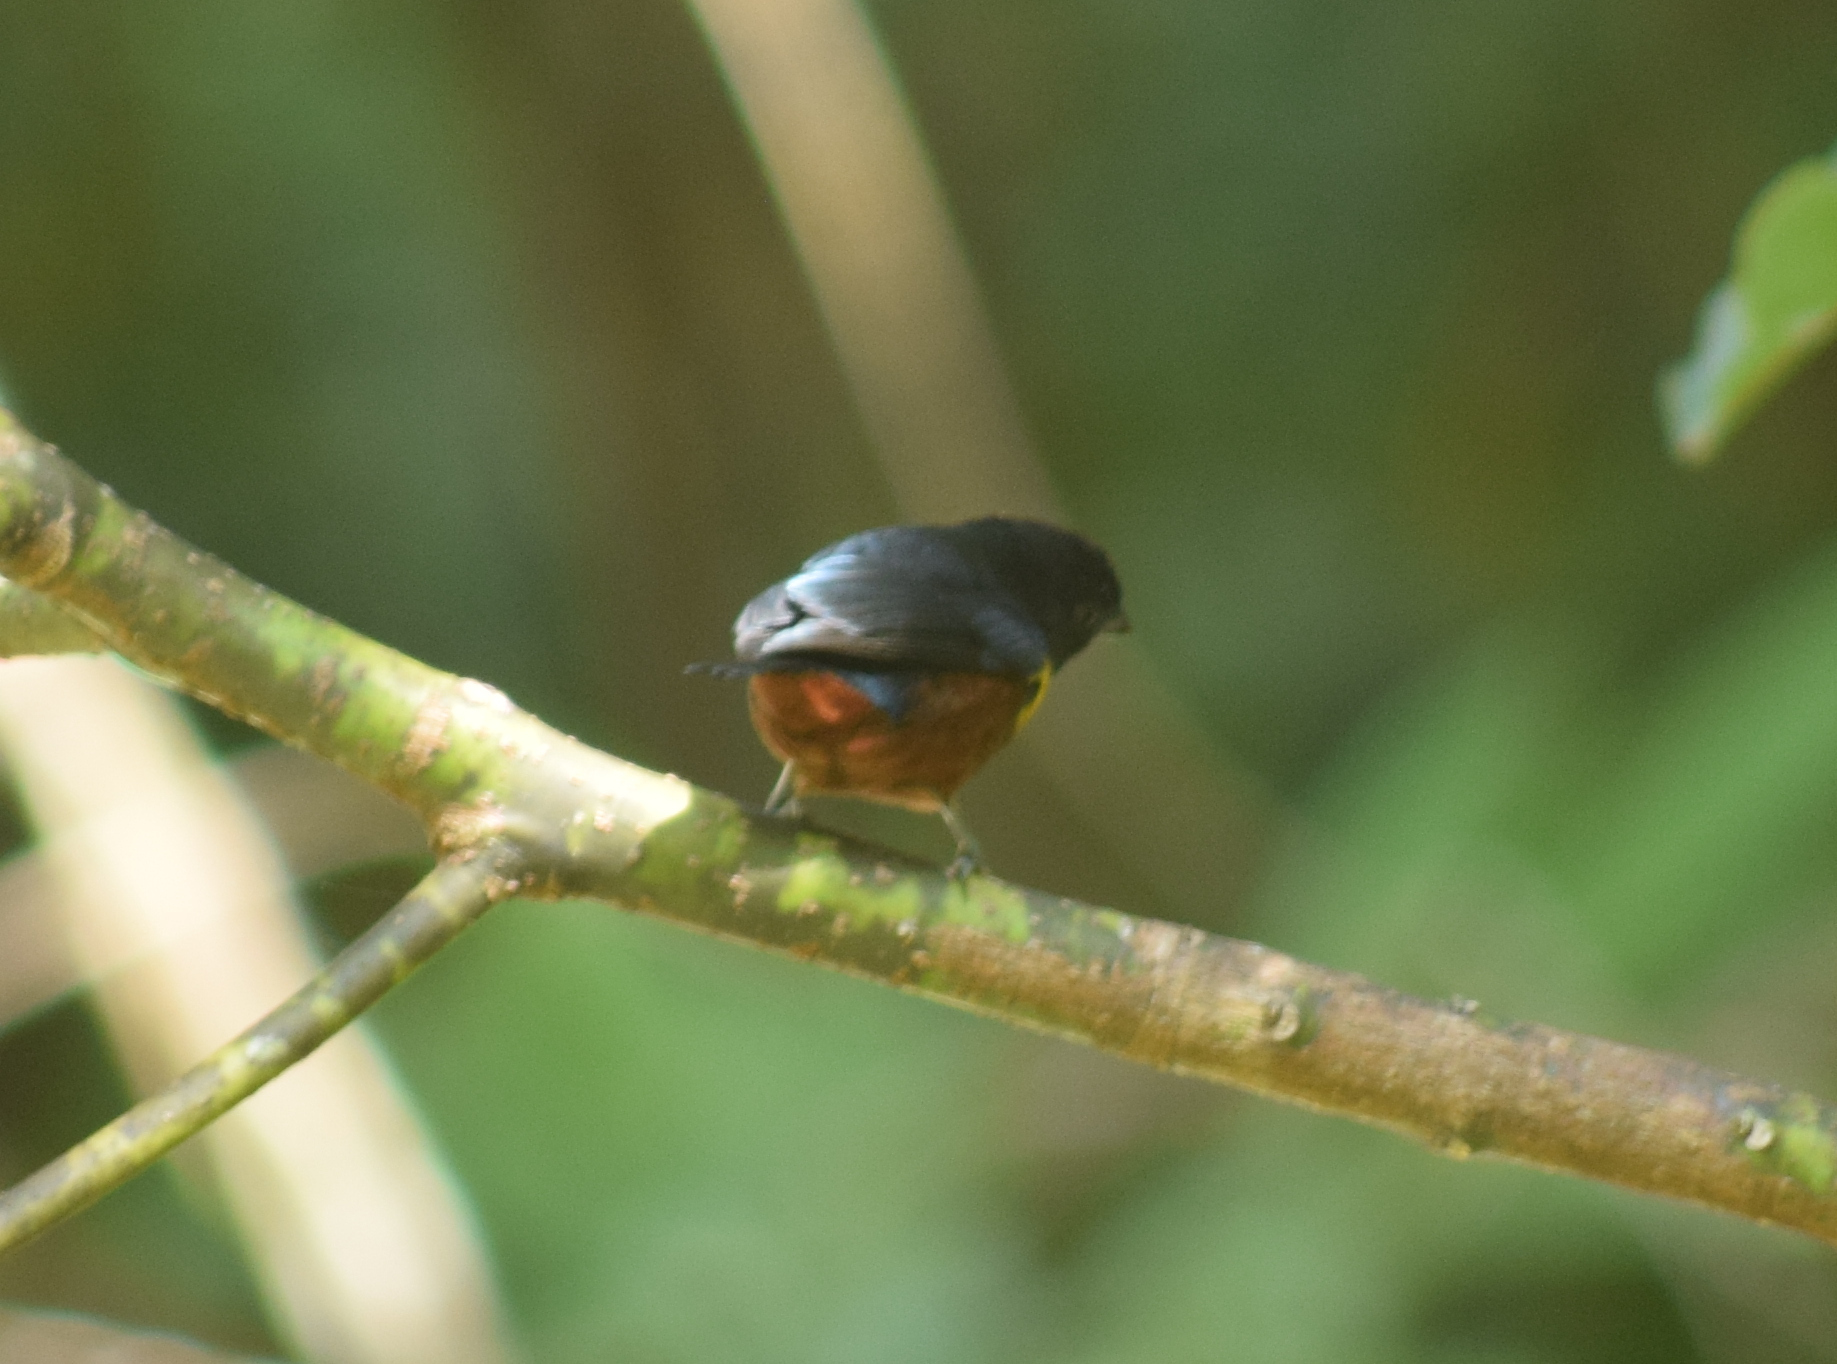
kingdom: Animalia
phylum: Chordata
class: Aves
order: Passeriformes
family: Fringillidae
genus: Euphonia
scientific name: Euphonia pectoralis
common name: Chestnut-bellied euphonia
